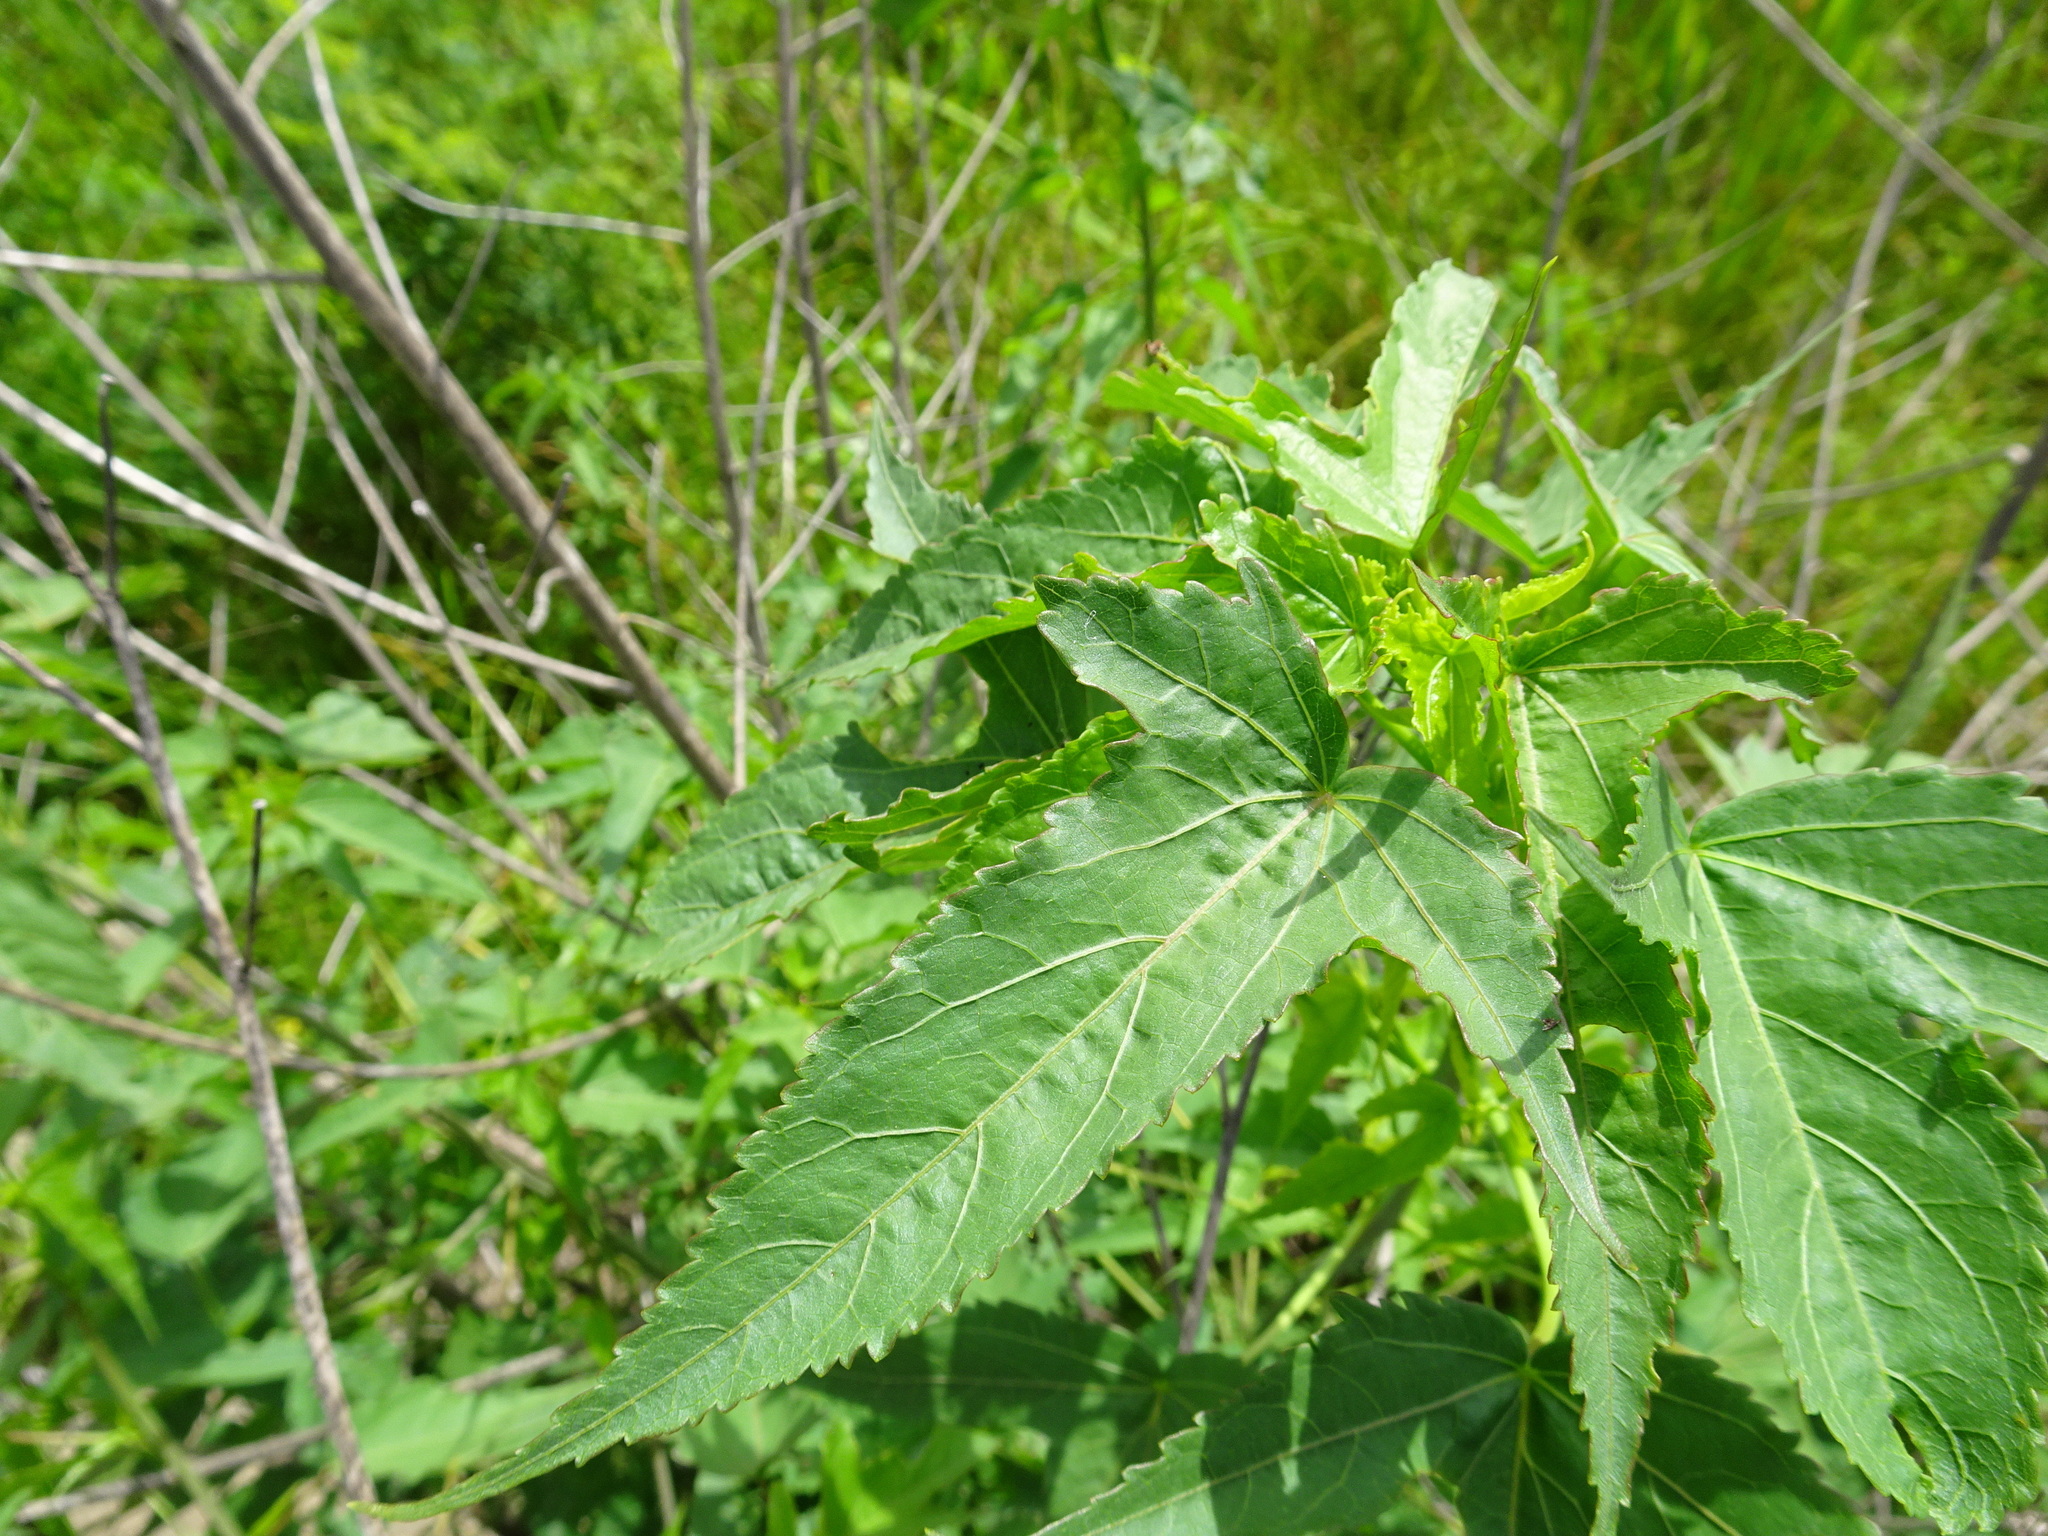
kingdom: Plantae
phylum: Tracheophyta
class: Magnoliopsida
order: Malvales
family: Malvaceae
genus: Hibiscus
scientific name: Hibiscus laevis
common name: Scarlet rose-mallow
